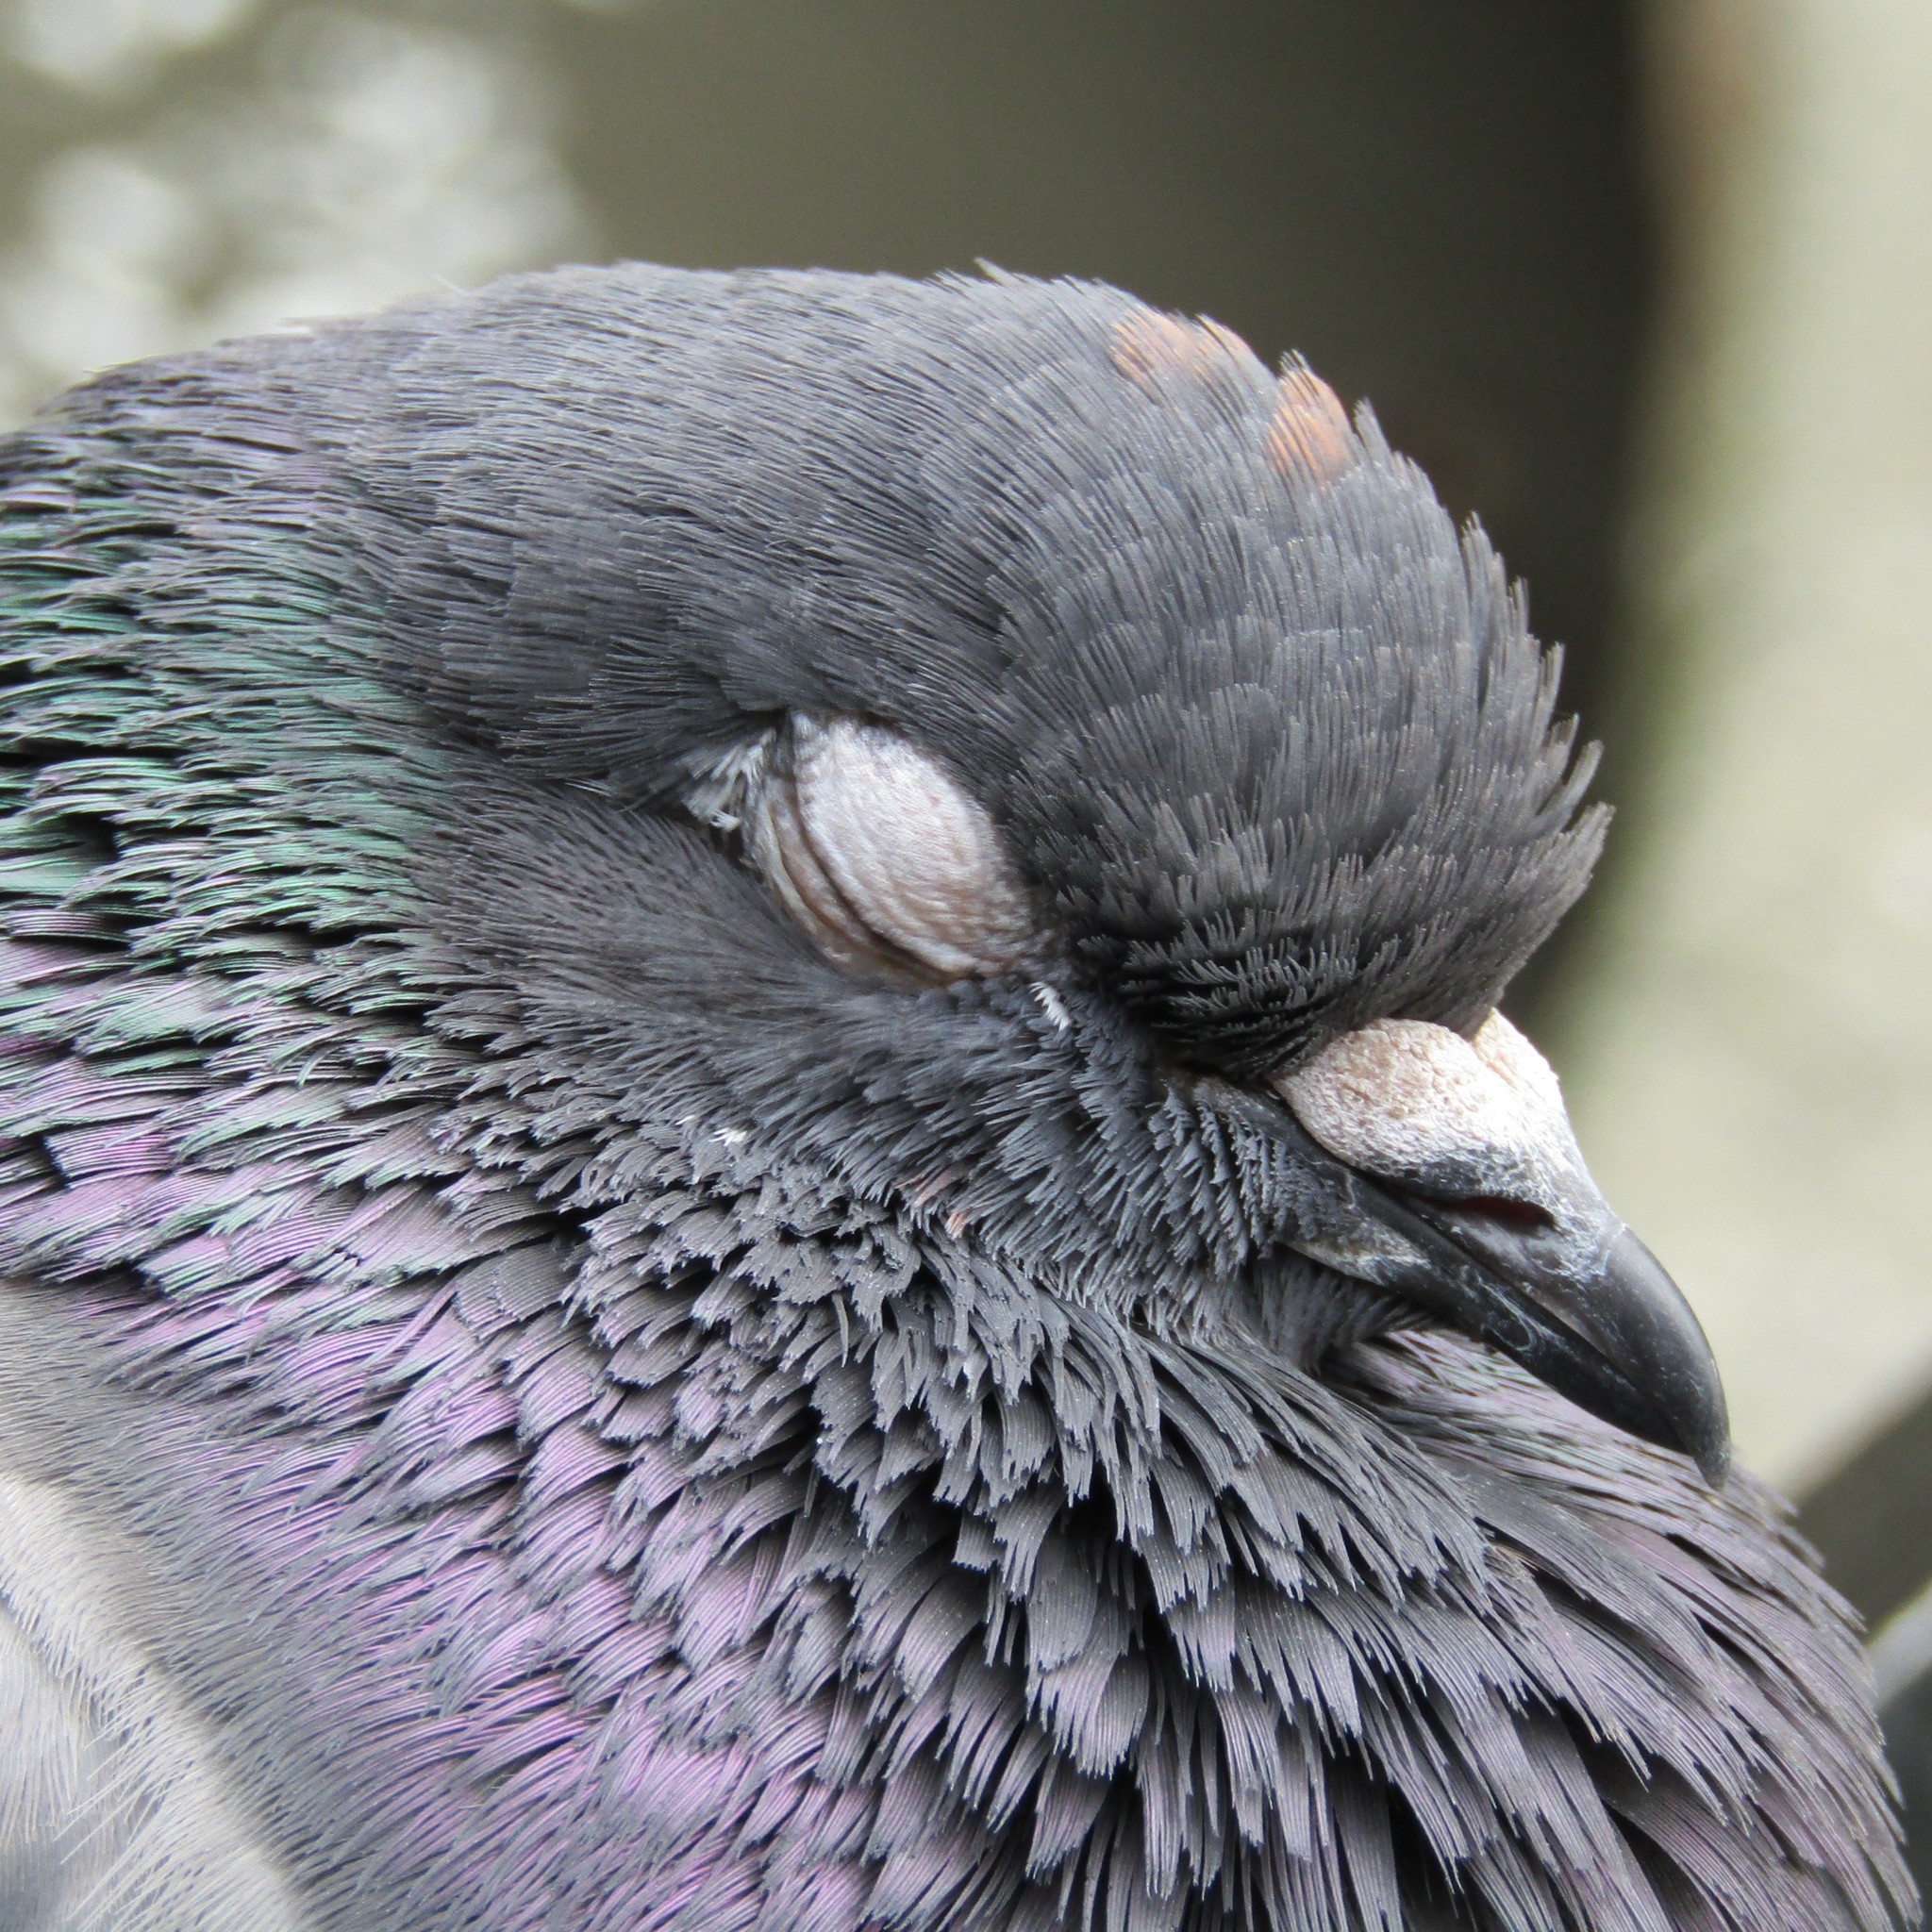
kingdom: Animalia
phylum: Chordata
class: Aves
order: Columbiformes
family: Columbidae
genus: Columba
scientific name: Columba livia
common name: Rock pigeon
